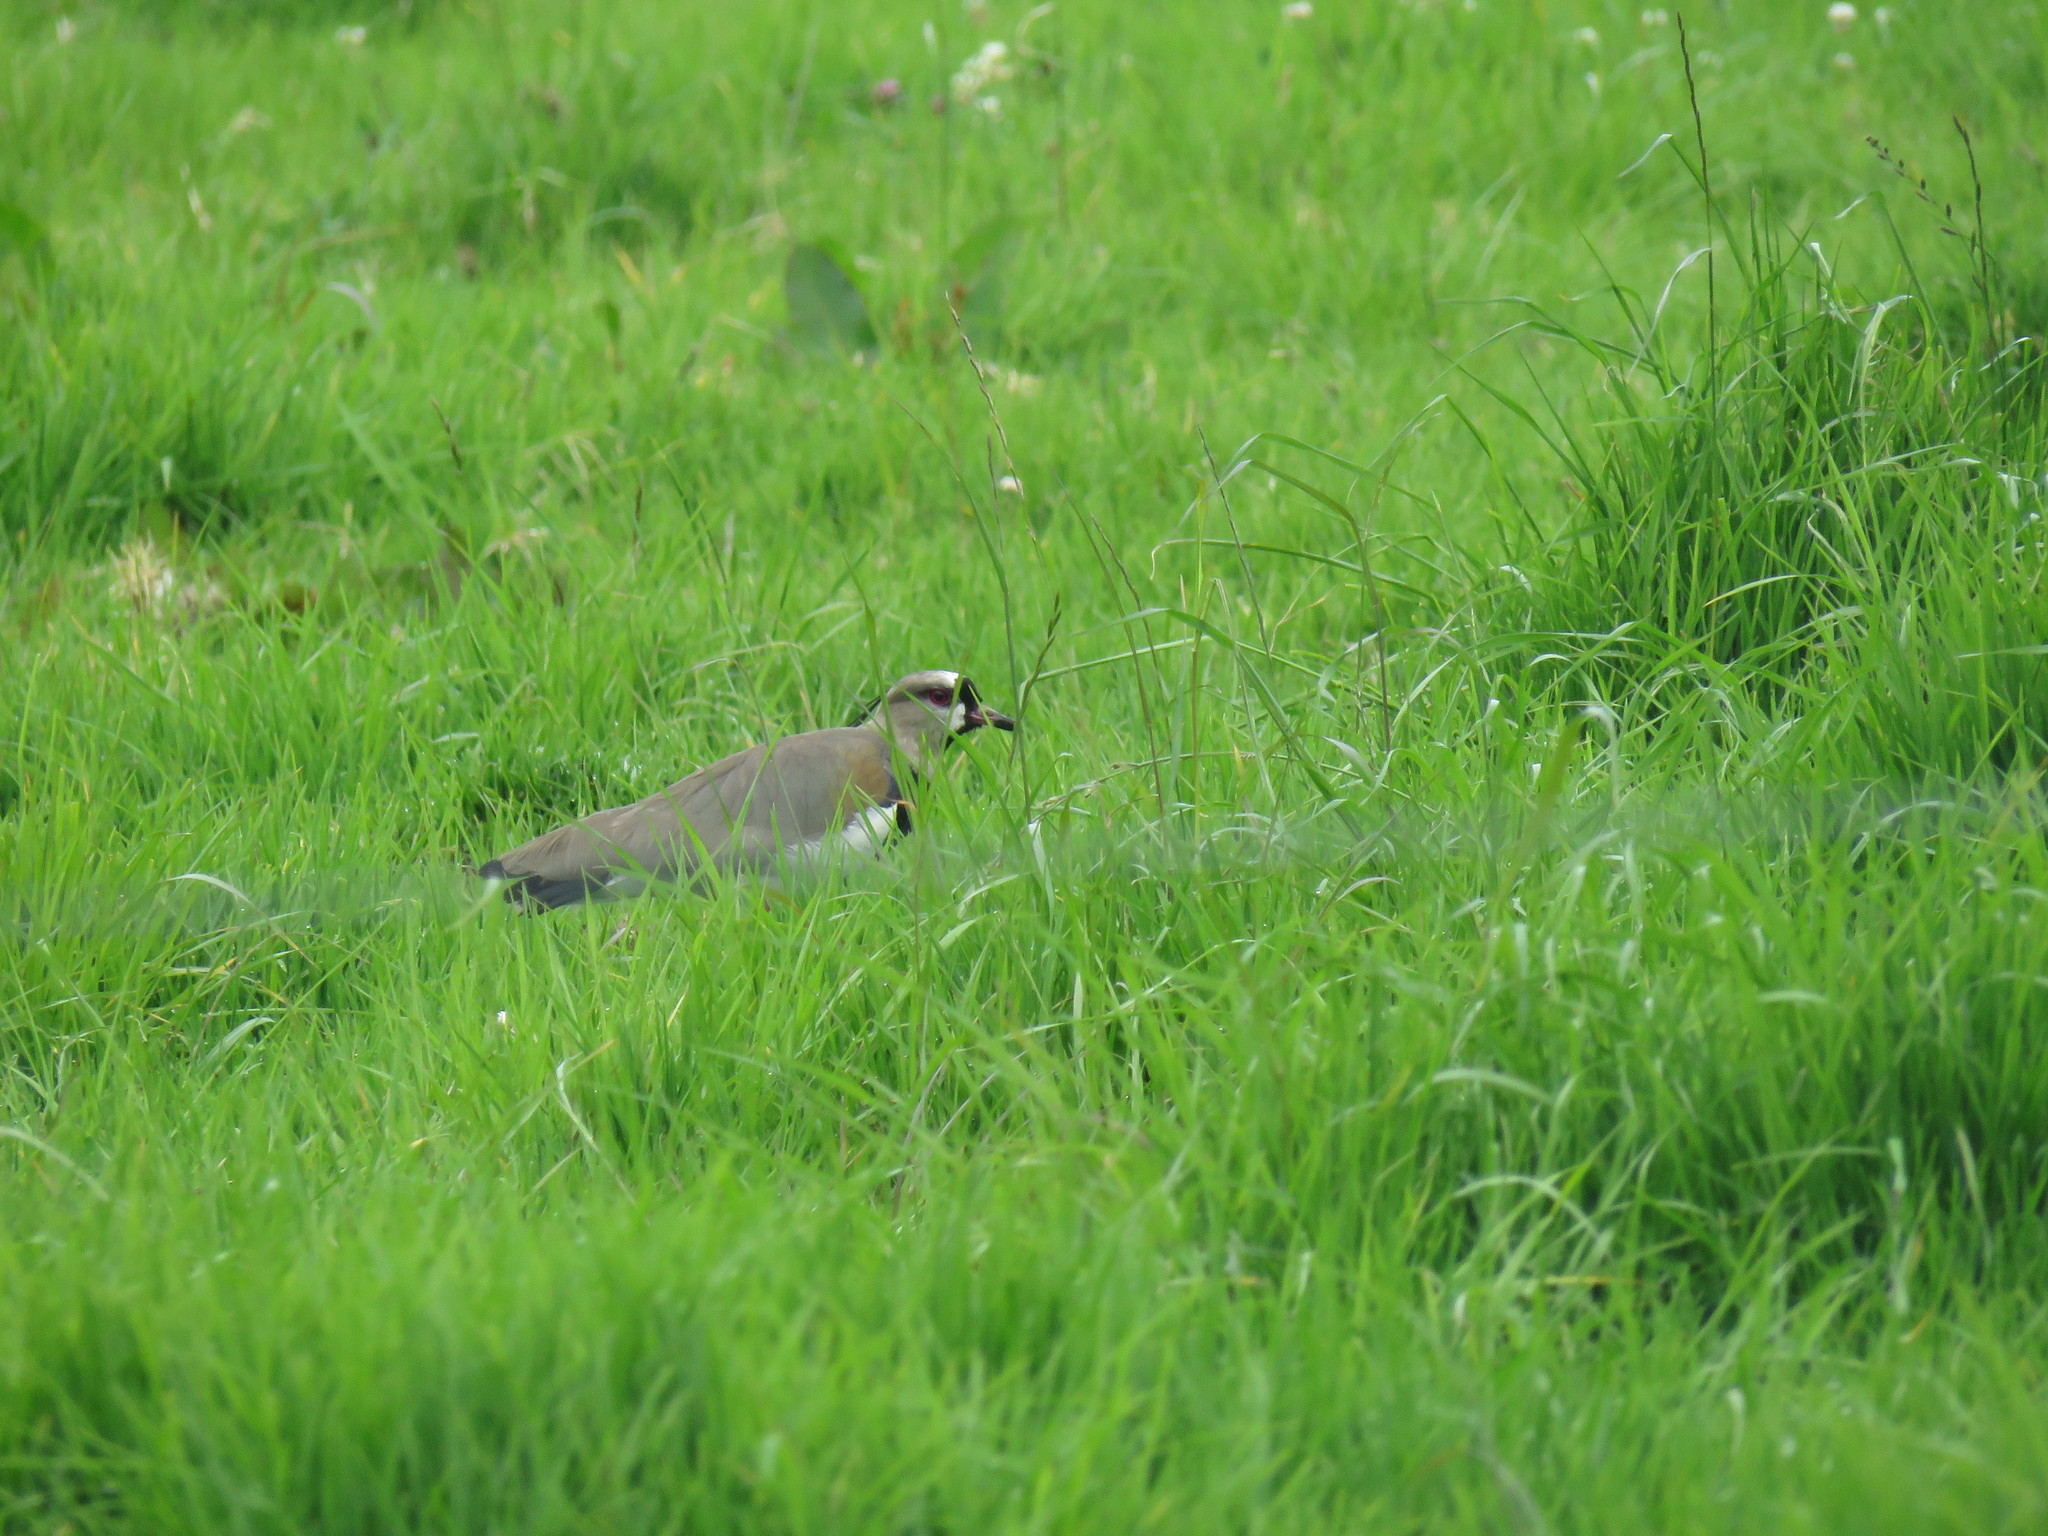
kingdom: Animalia
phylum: Chordata
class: Aves
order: Charadriiformes
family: Charadriidae
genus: Vanellus
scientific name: Vanellus chilensis
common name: Southern lapwing
